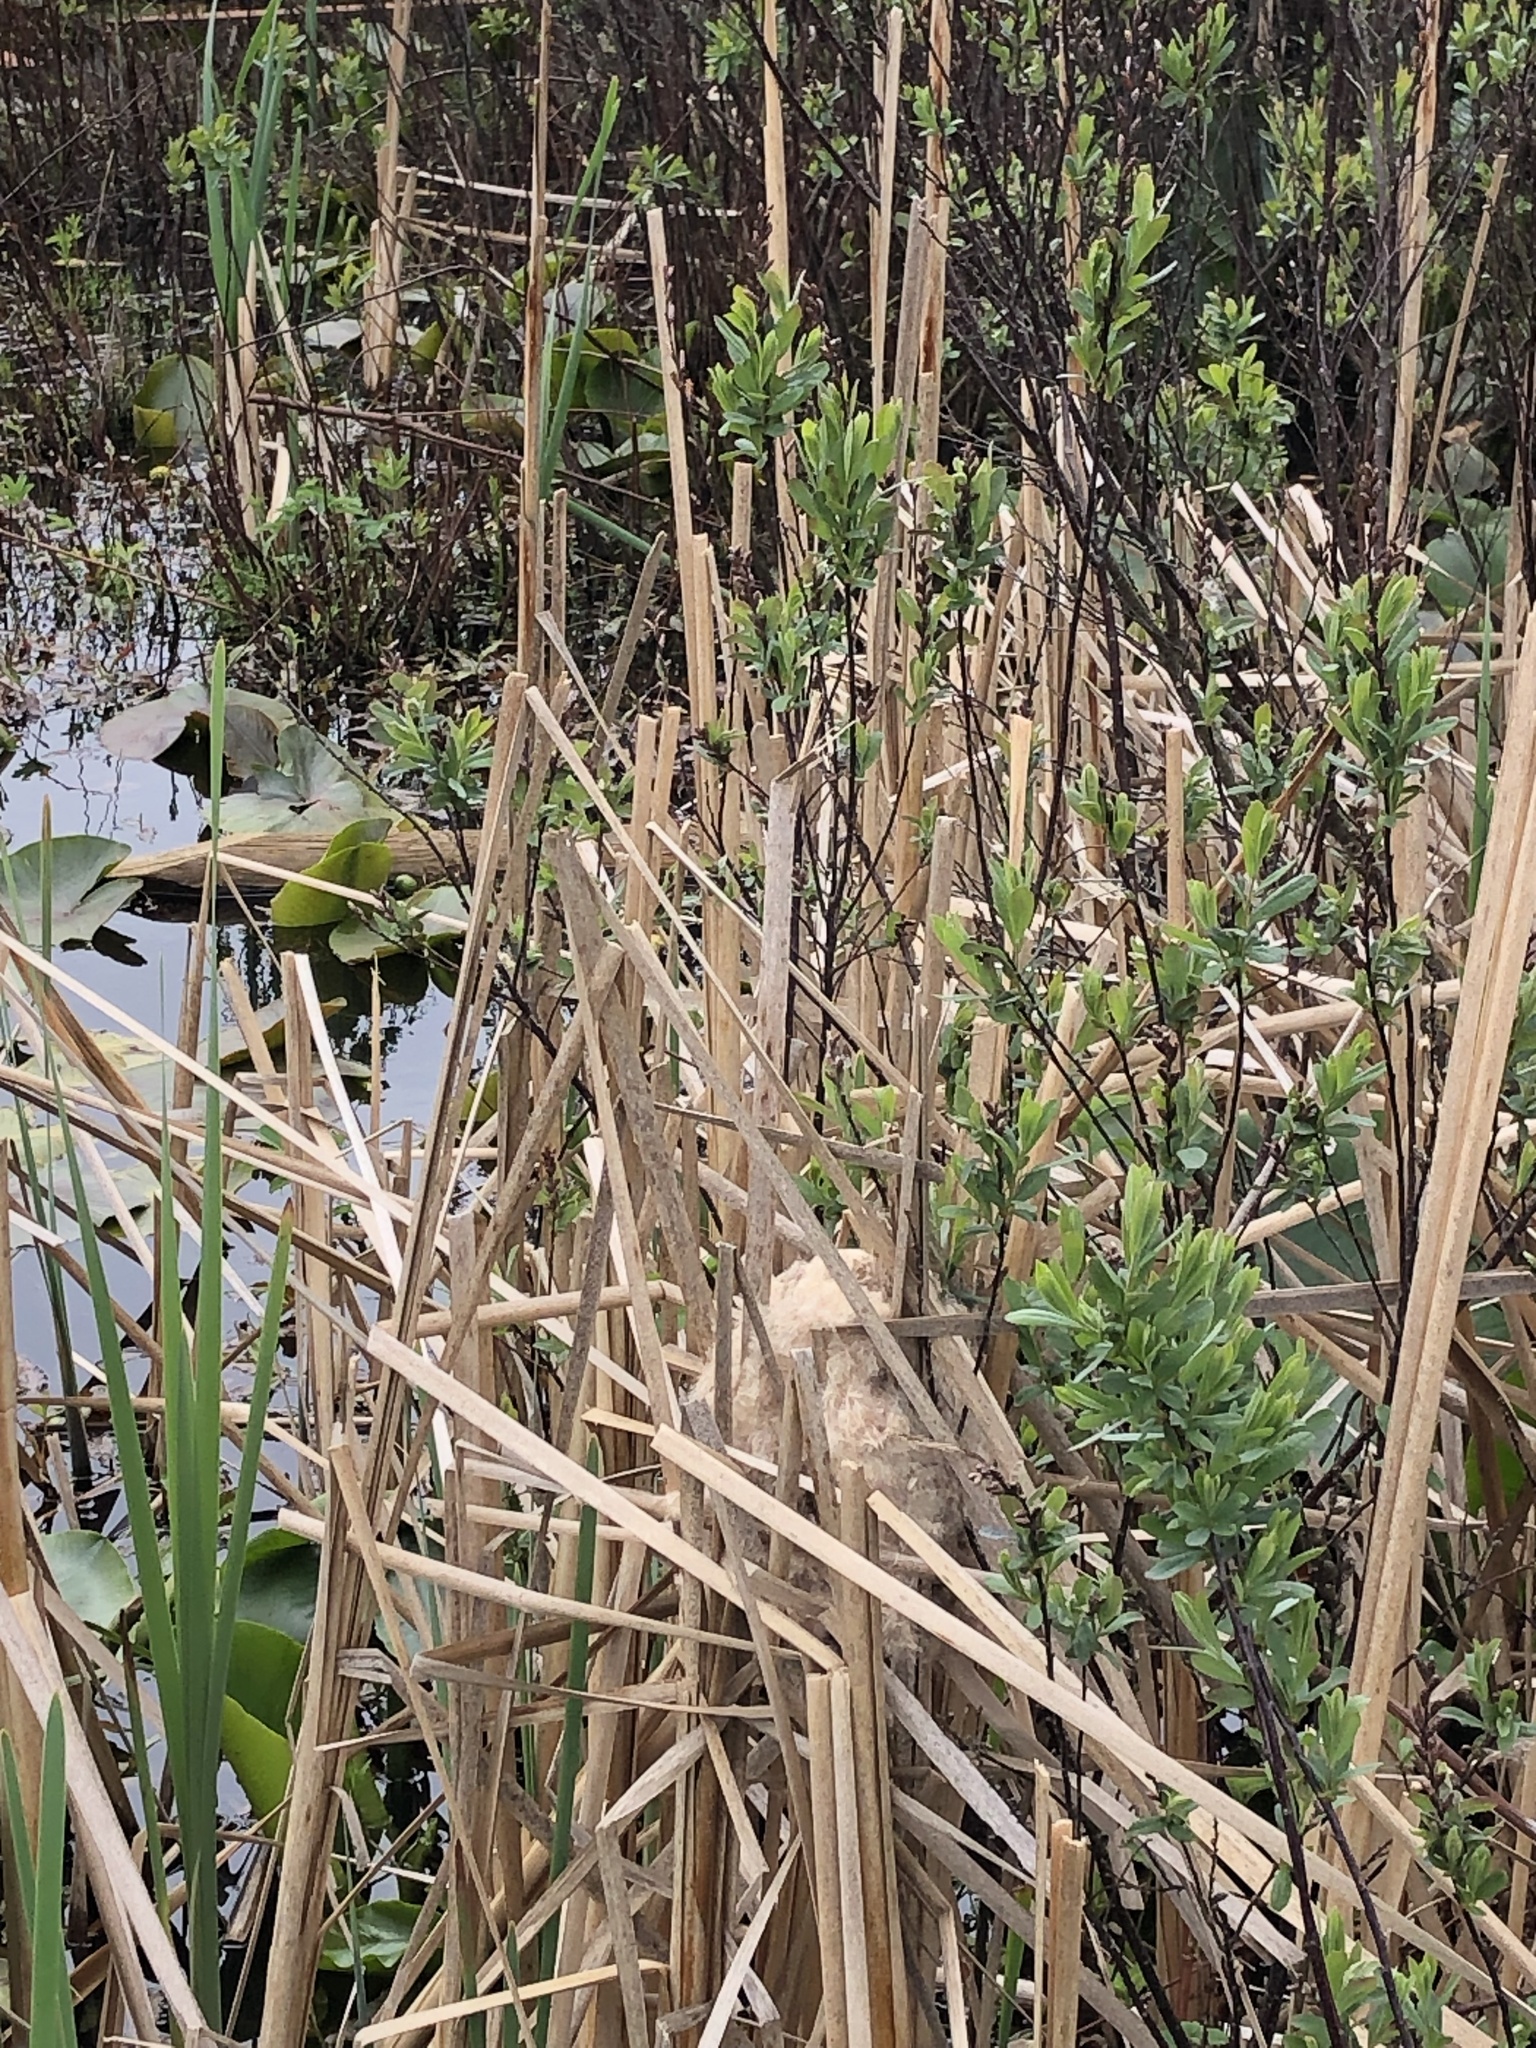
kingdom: Animalia
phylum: Chordata
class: Aves
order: Passeriformes
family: Troglodytidae
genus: Cistothorus
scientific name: Cistothorus palustris
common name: Marsh wren
